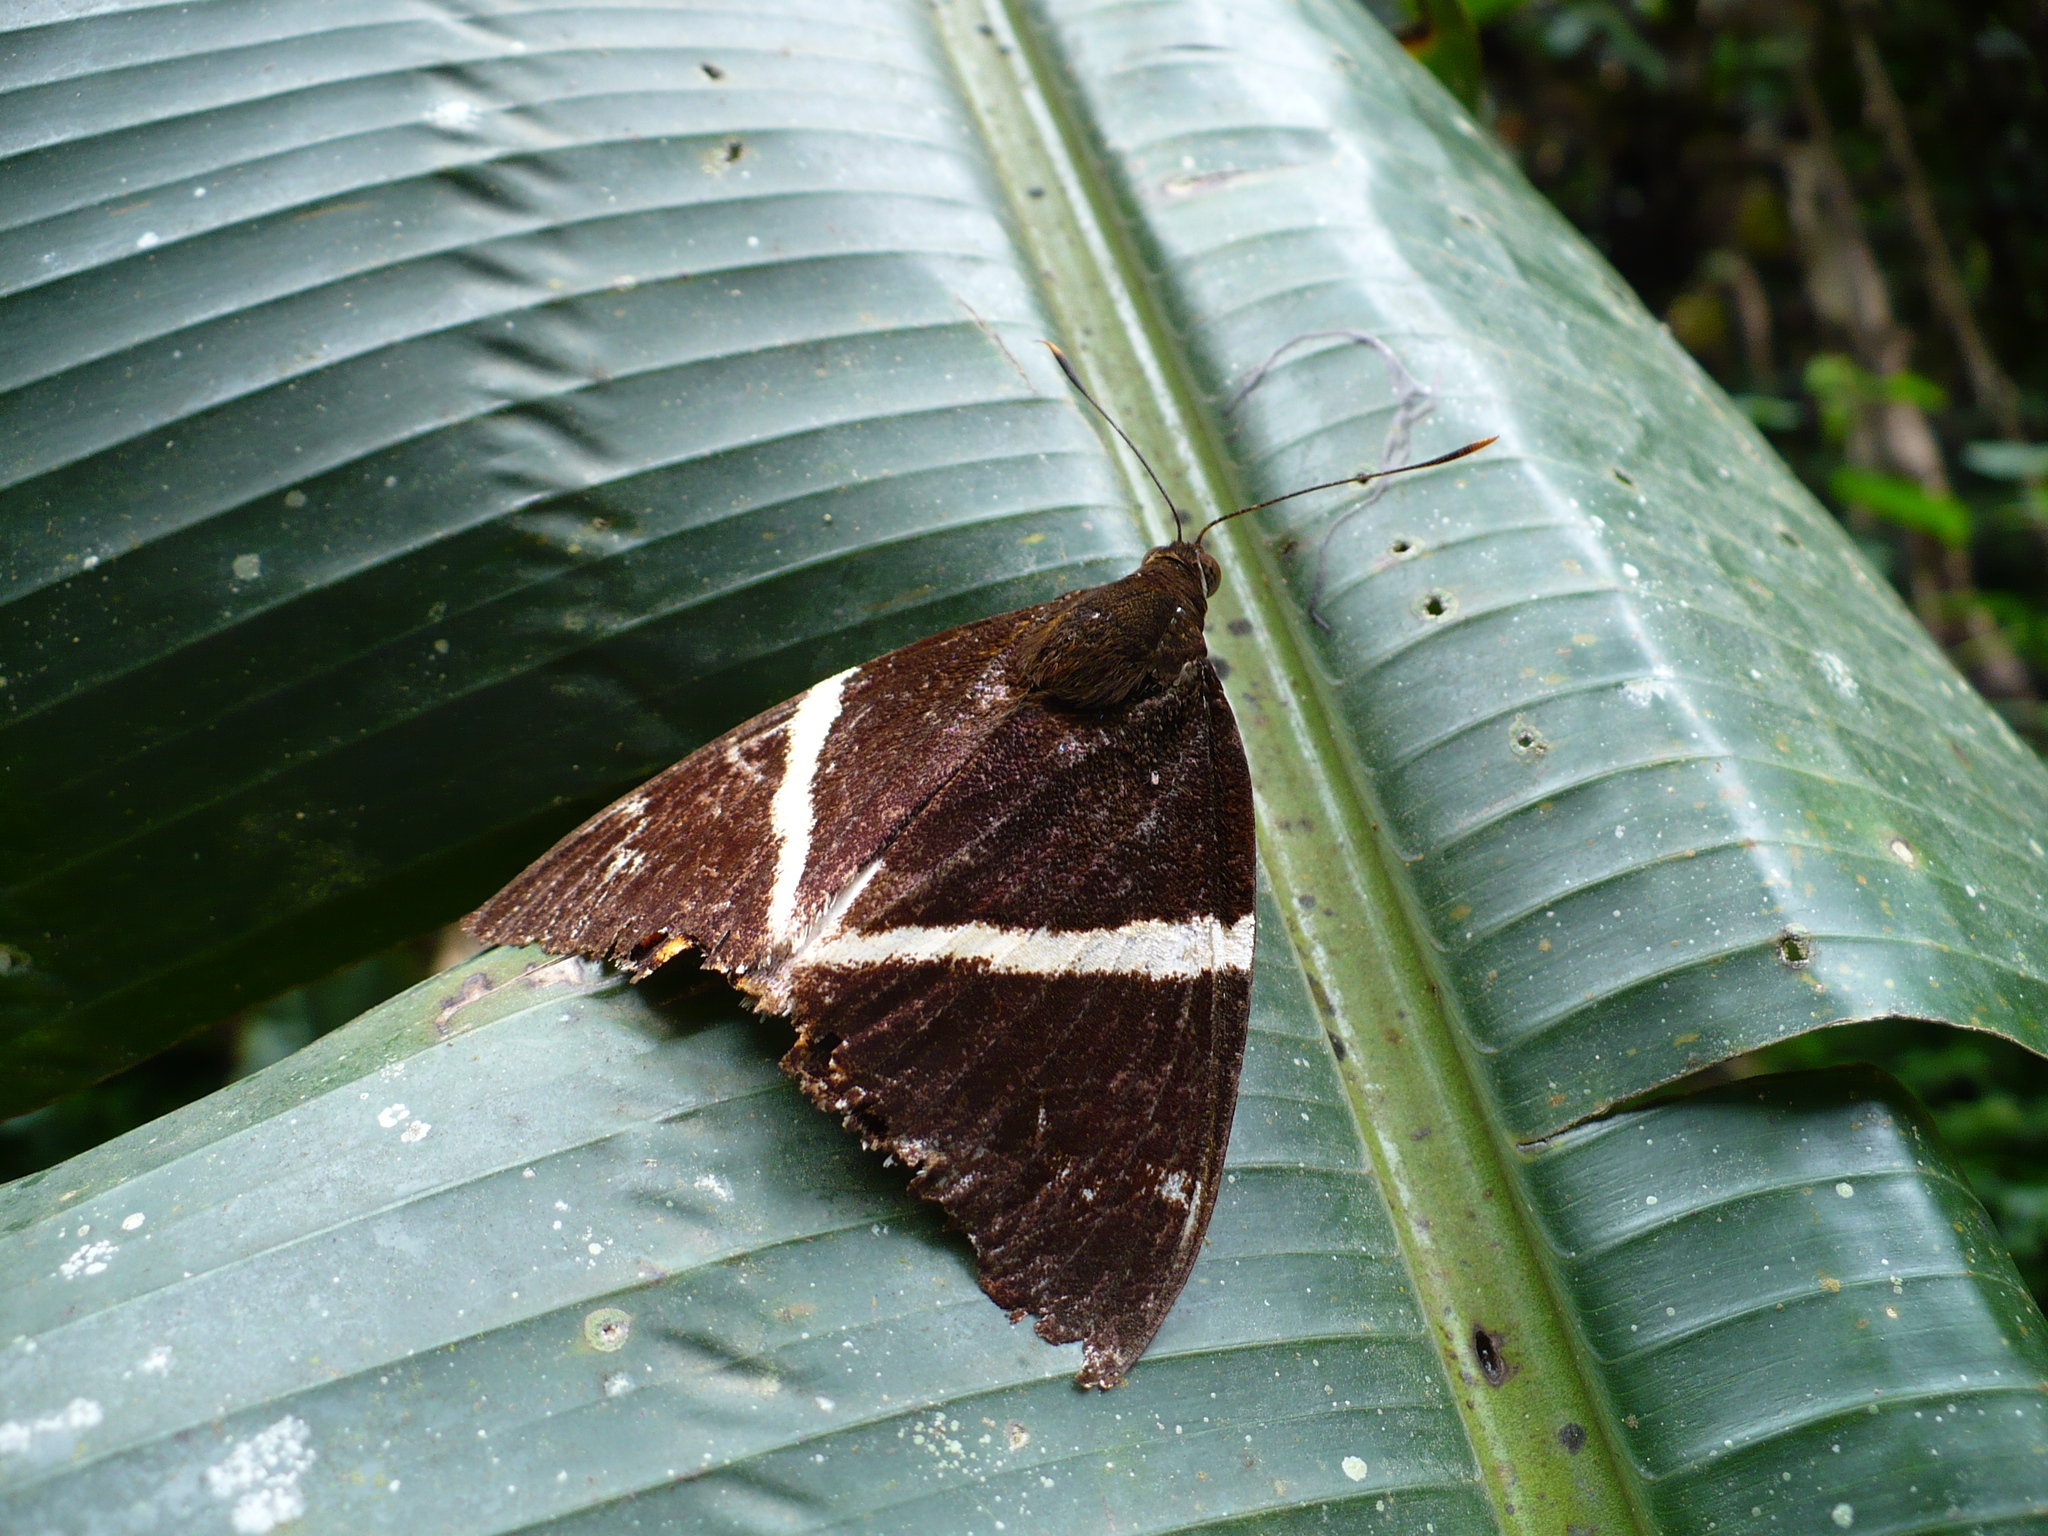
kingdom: Animalia
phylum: Arthropoda
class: Insecta
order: Lepidoptera
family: Castniidae
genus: Castnia
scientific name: Castnia licus
